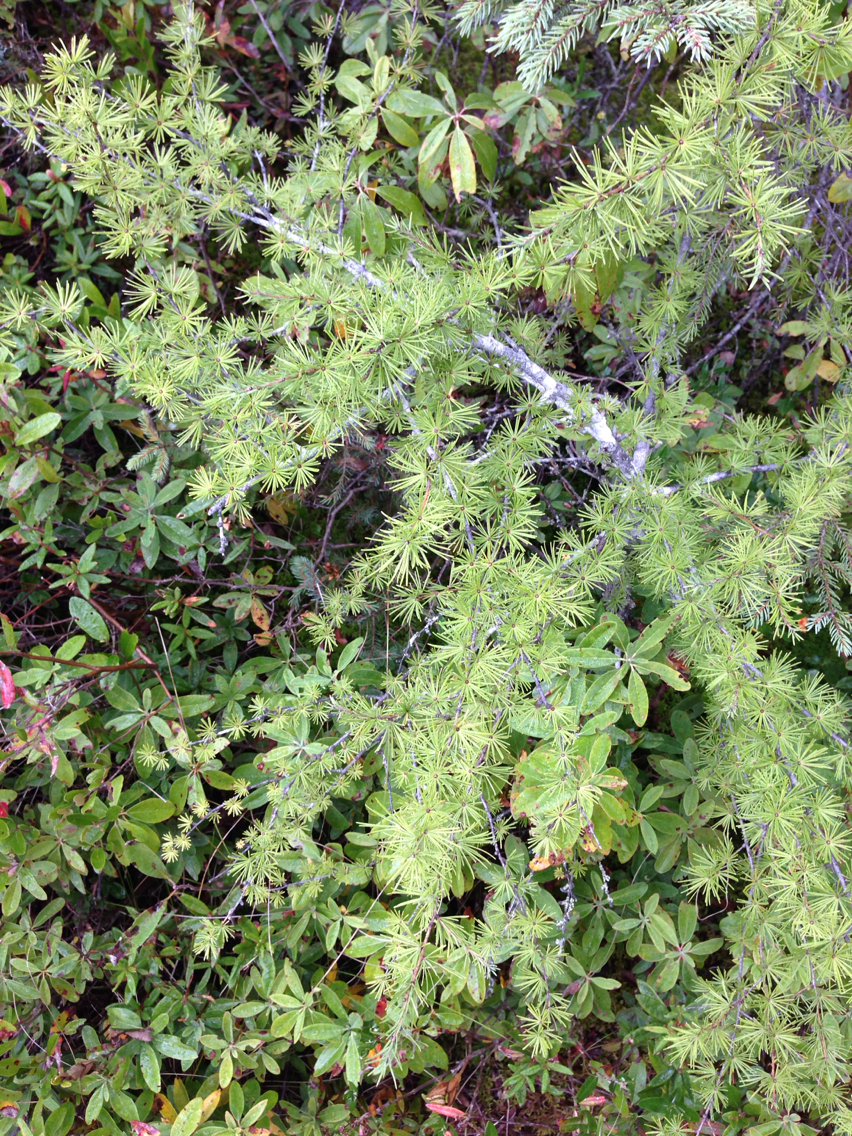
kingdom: Plantae
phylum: Tracheophyta
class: Pinopsida
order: Pinales
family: Pinaceae
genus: Larix
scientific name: Larix laricina
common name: American larch
